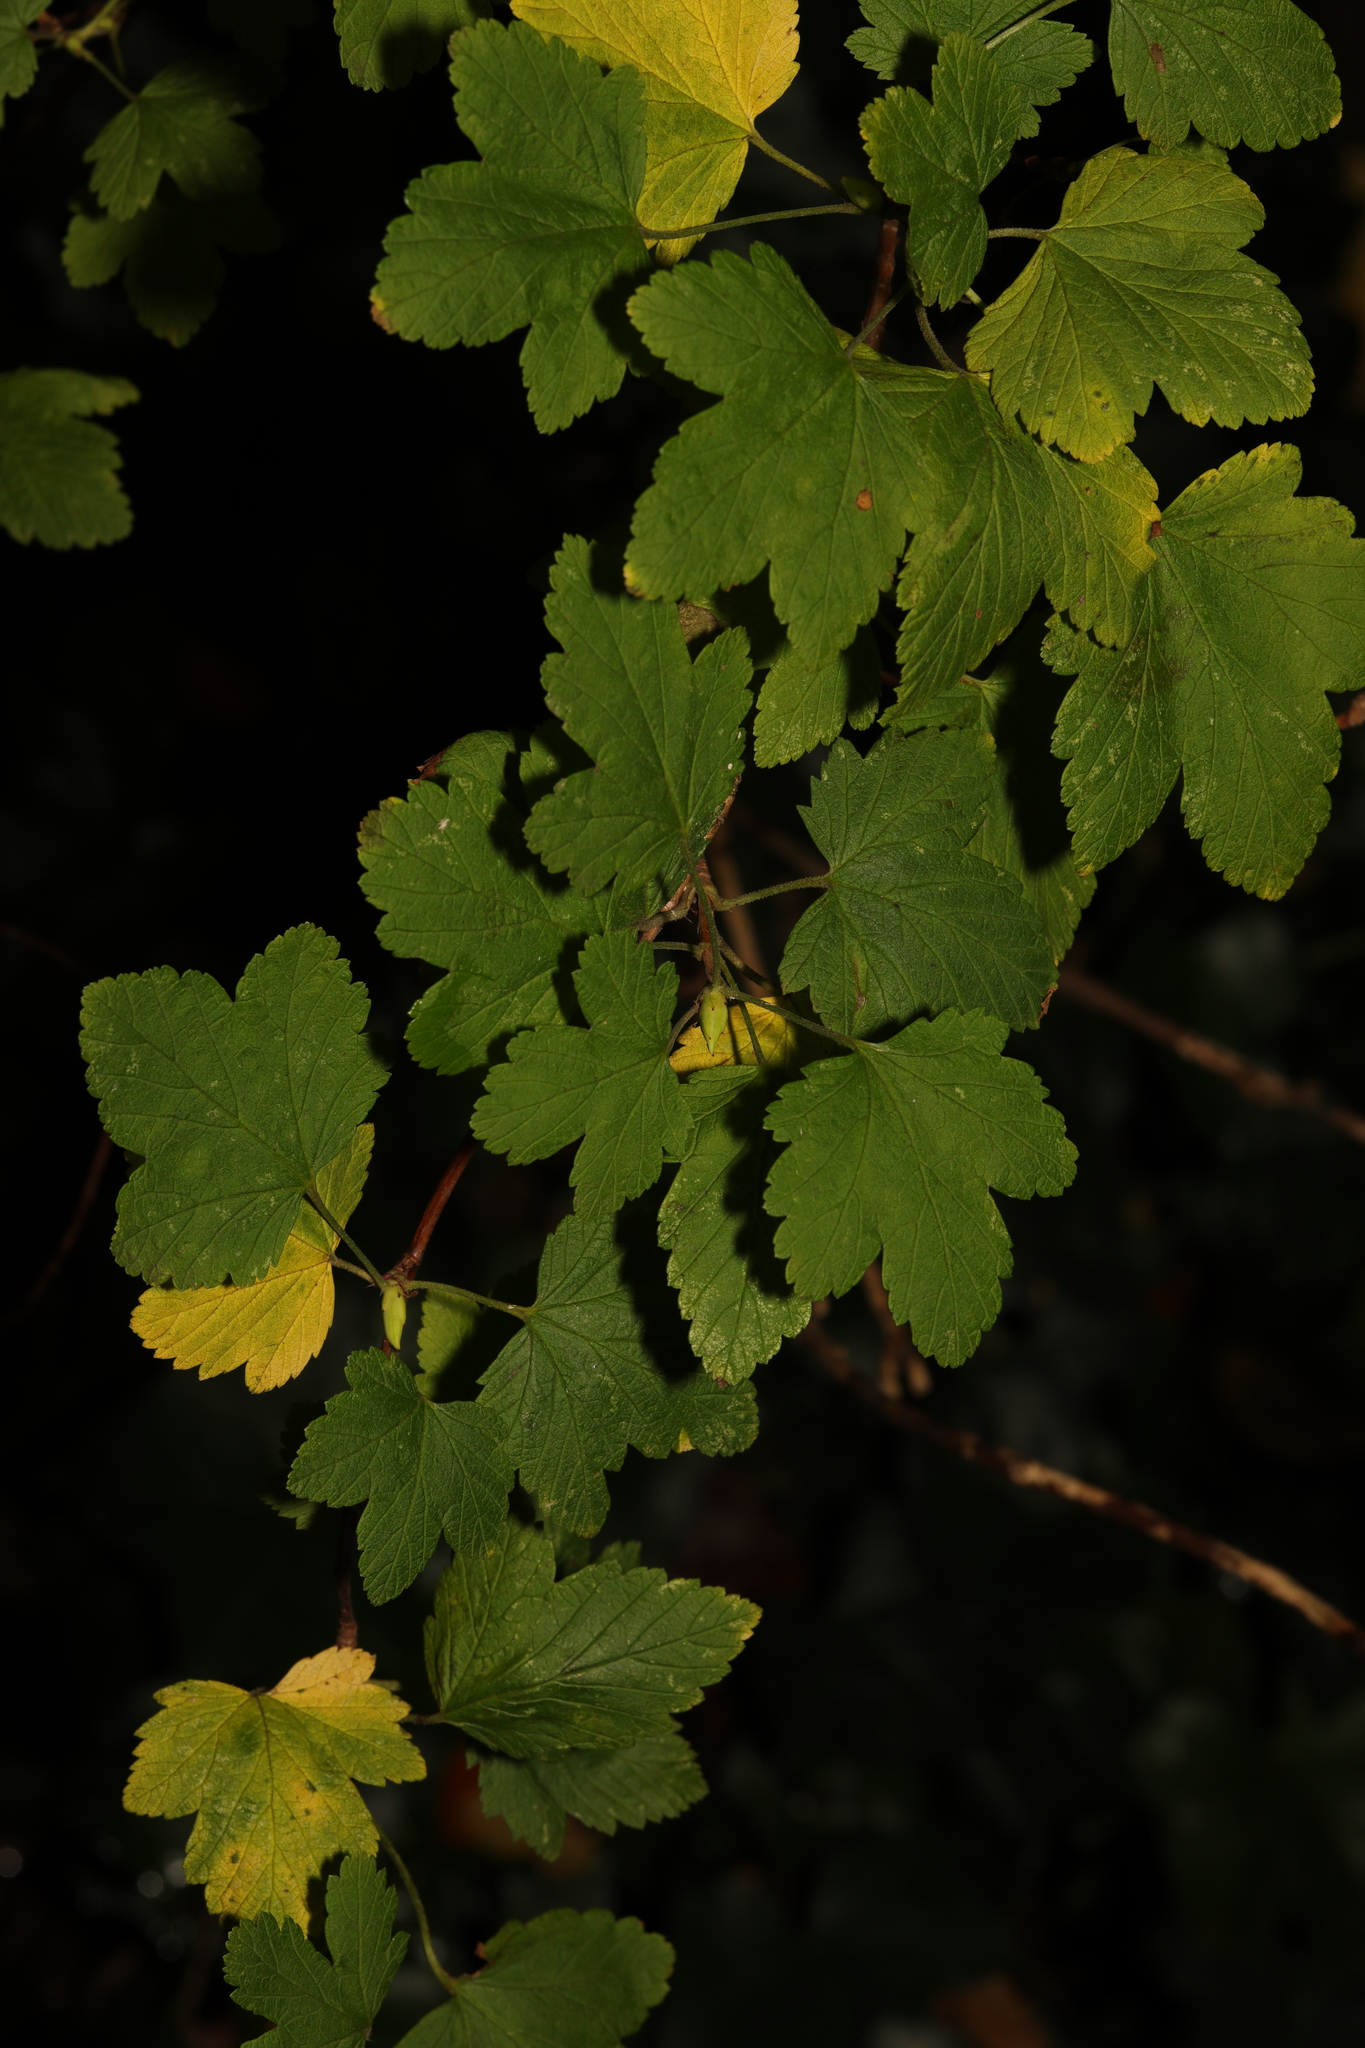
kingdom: Plantae
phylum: Tracheophyta
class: Magnoliopsida
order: Saxifragales
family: Grossulariaceae
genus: Ribes
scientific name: Ribes sanguineum
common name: Flowering currant
